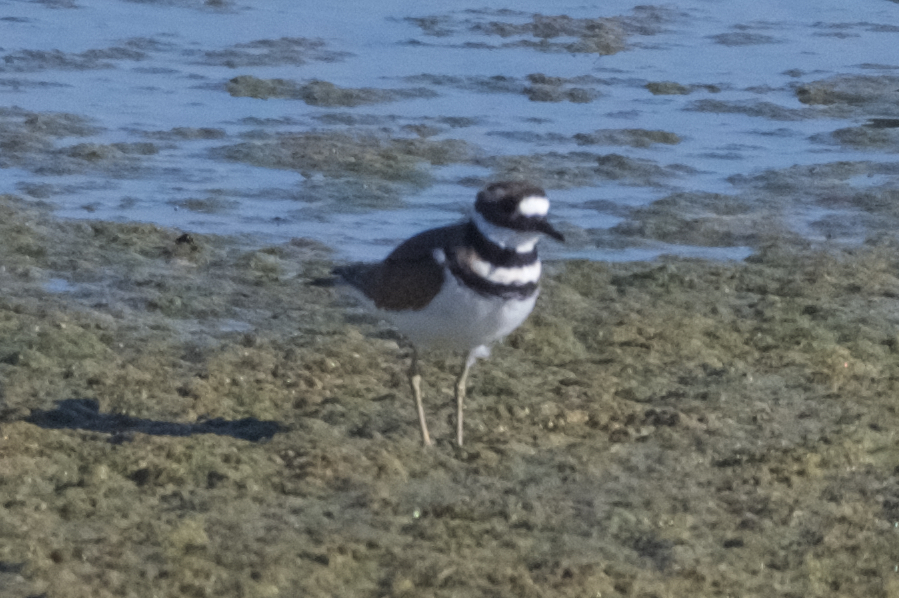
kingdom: Animalia
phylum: Chordata
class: Aves
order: Charadriiformes
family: Charadriidae
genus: Charadrius
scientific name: Charadrius vociferus
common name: Killdeer
